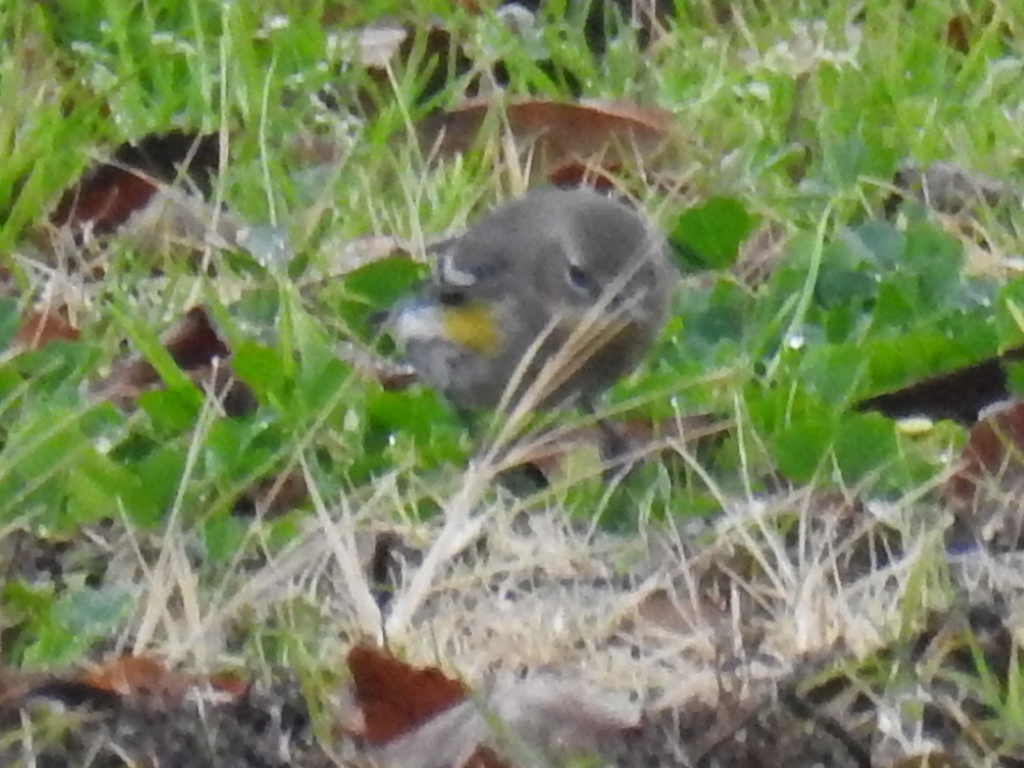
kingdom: Animalia
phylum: Chordata
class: Aves
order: Passeriformes
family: Parulidae
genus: Setophaga
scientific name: Setophaga coronata
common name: Myrtle warbler
